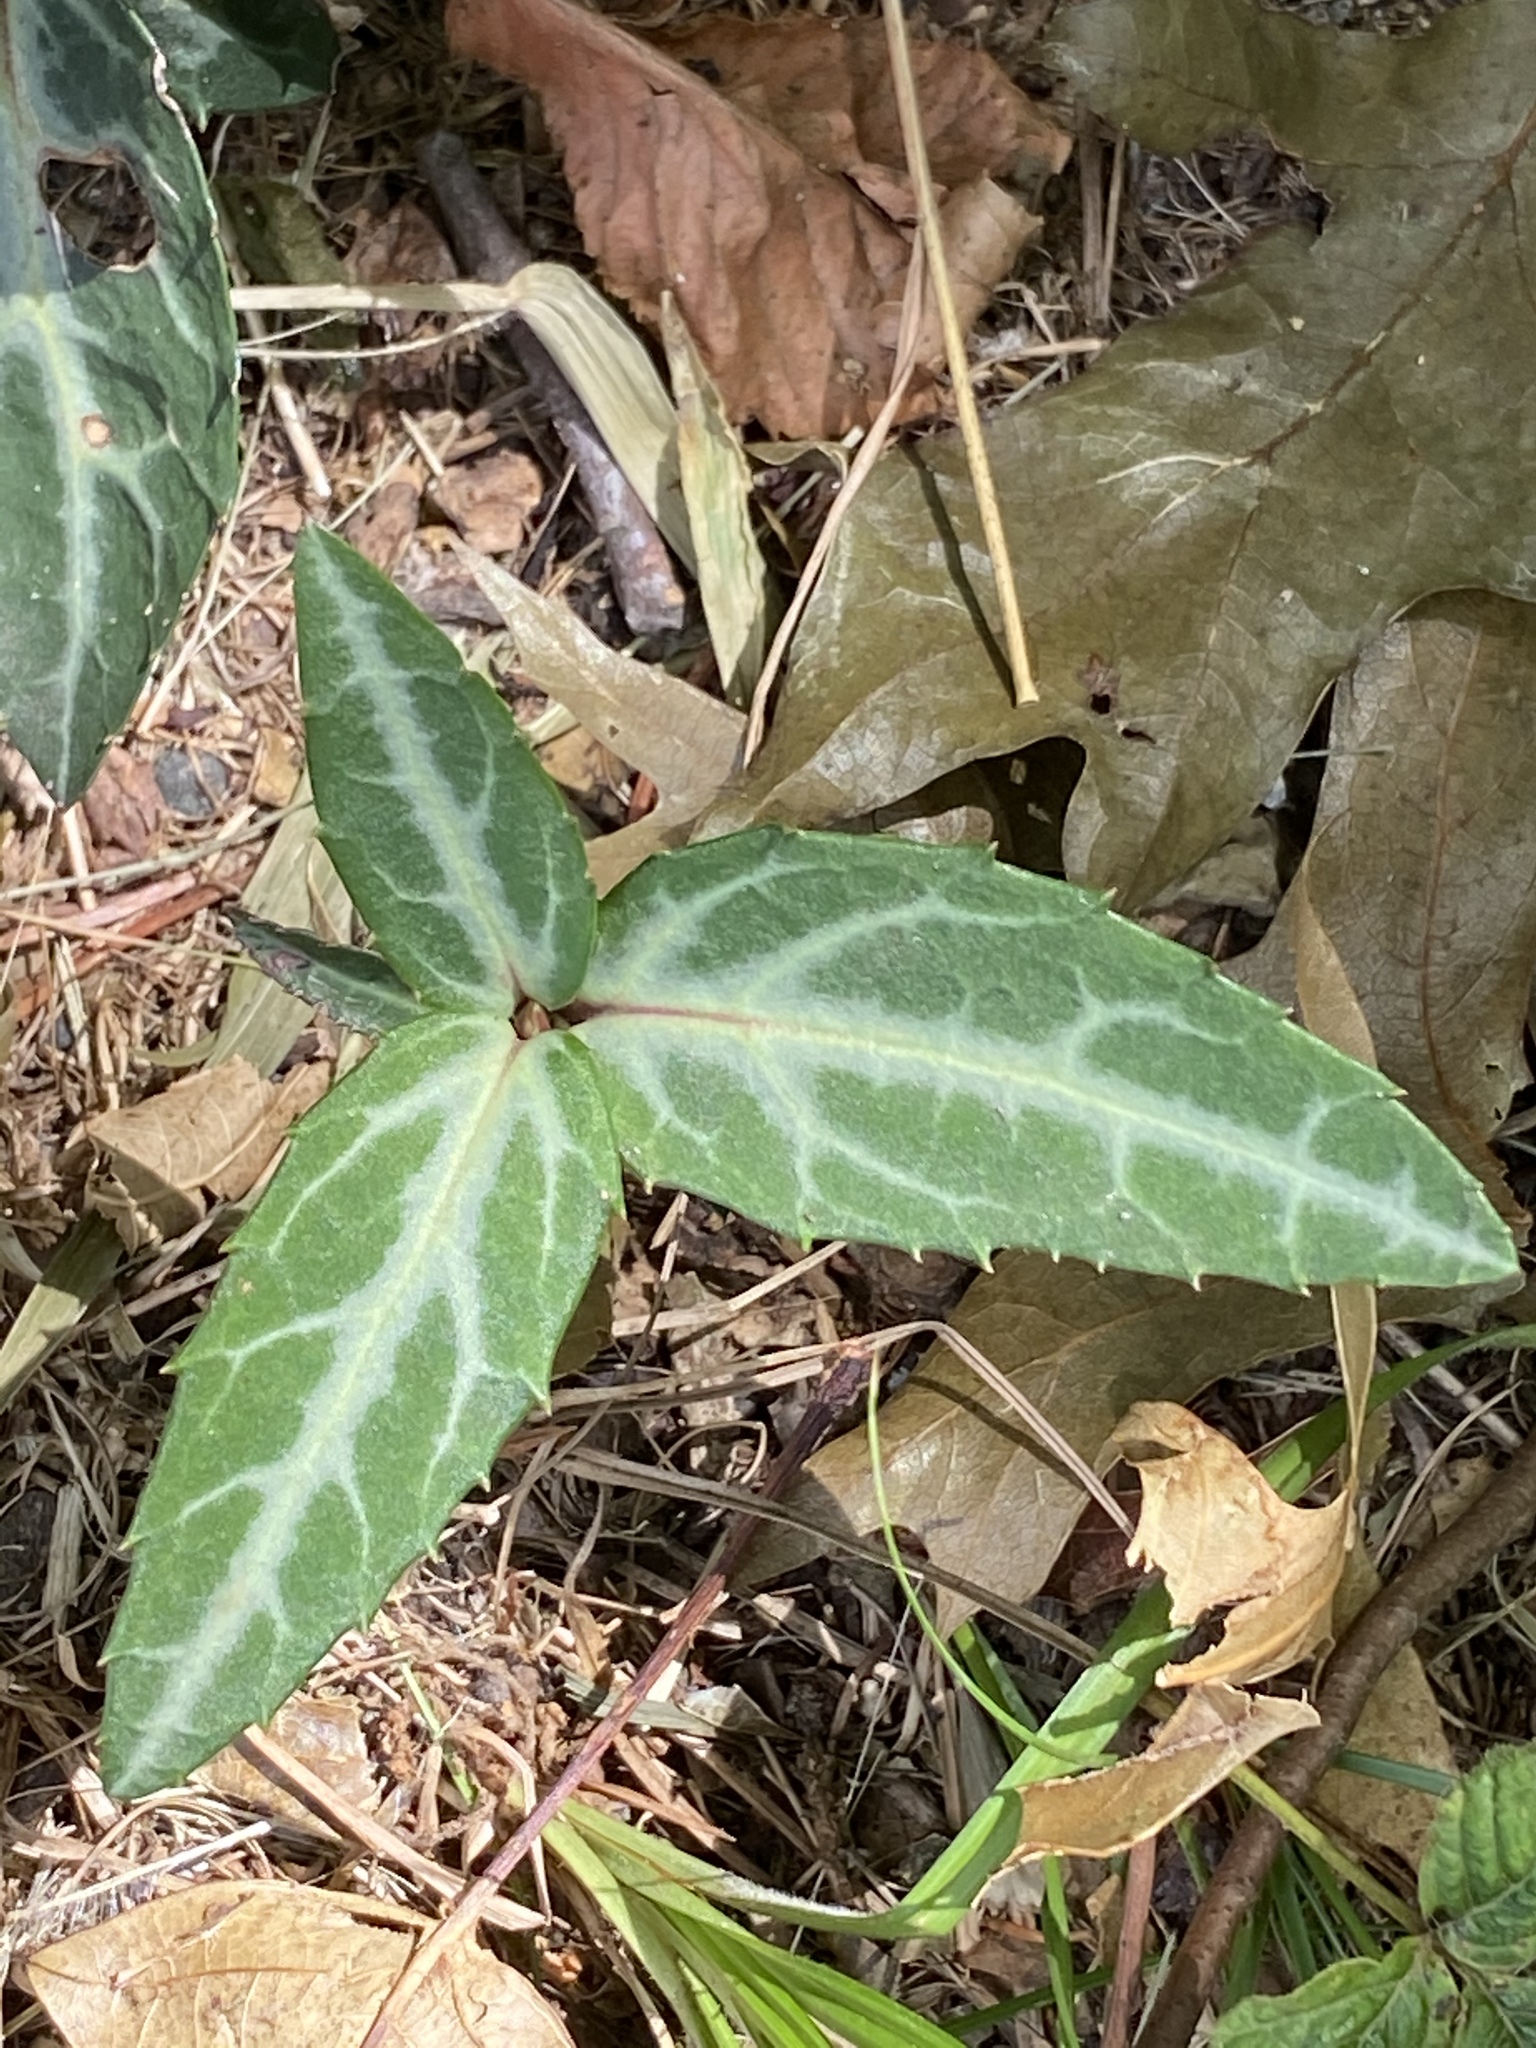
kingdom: Plantae
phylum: Tracheophyta
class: Magnoliopsida
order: Ericales
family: Ericaceae
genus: Chimaphila
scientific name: Chimaphila maculata
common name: Spotted pipsissewa
